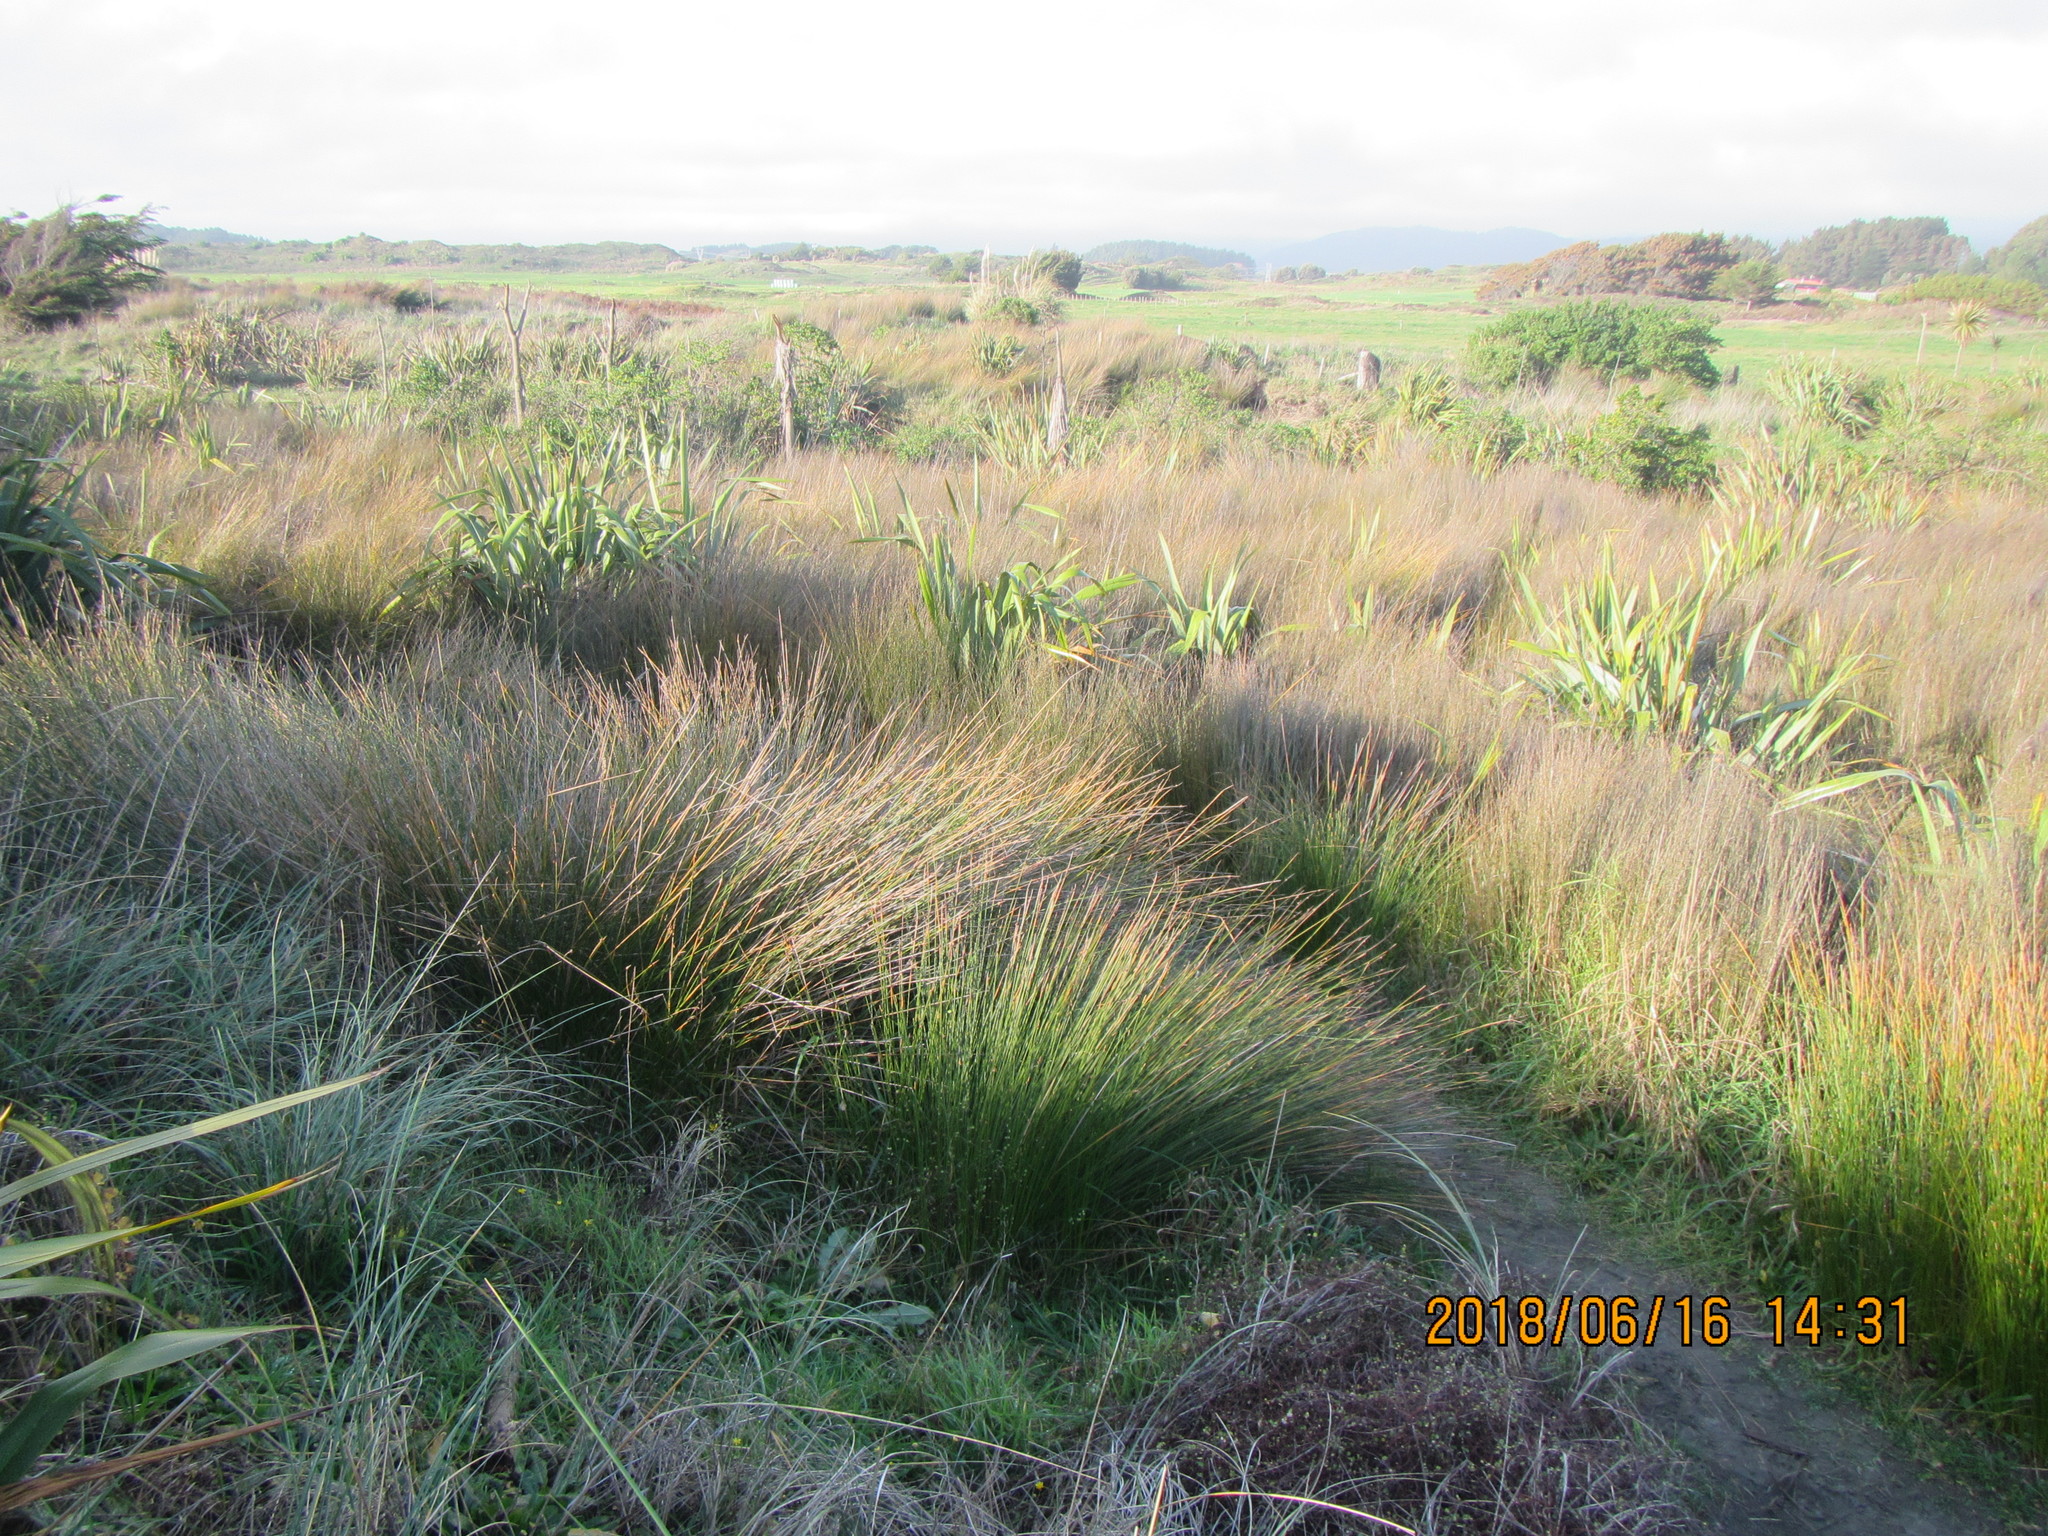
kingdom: Plantae
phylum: Tracheophyta
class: Liliopsida
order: Poales
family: Restionaceae
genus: Apodasmia
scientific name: Apodasmia similis
